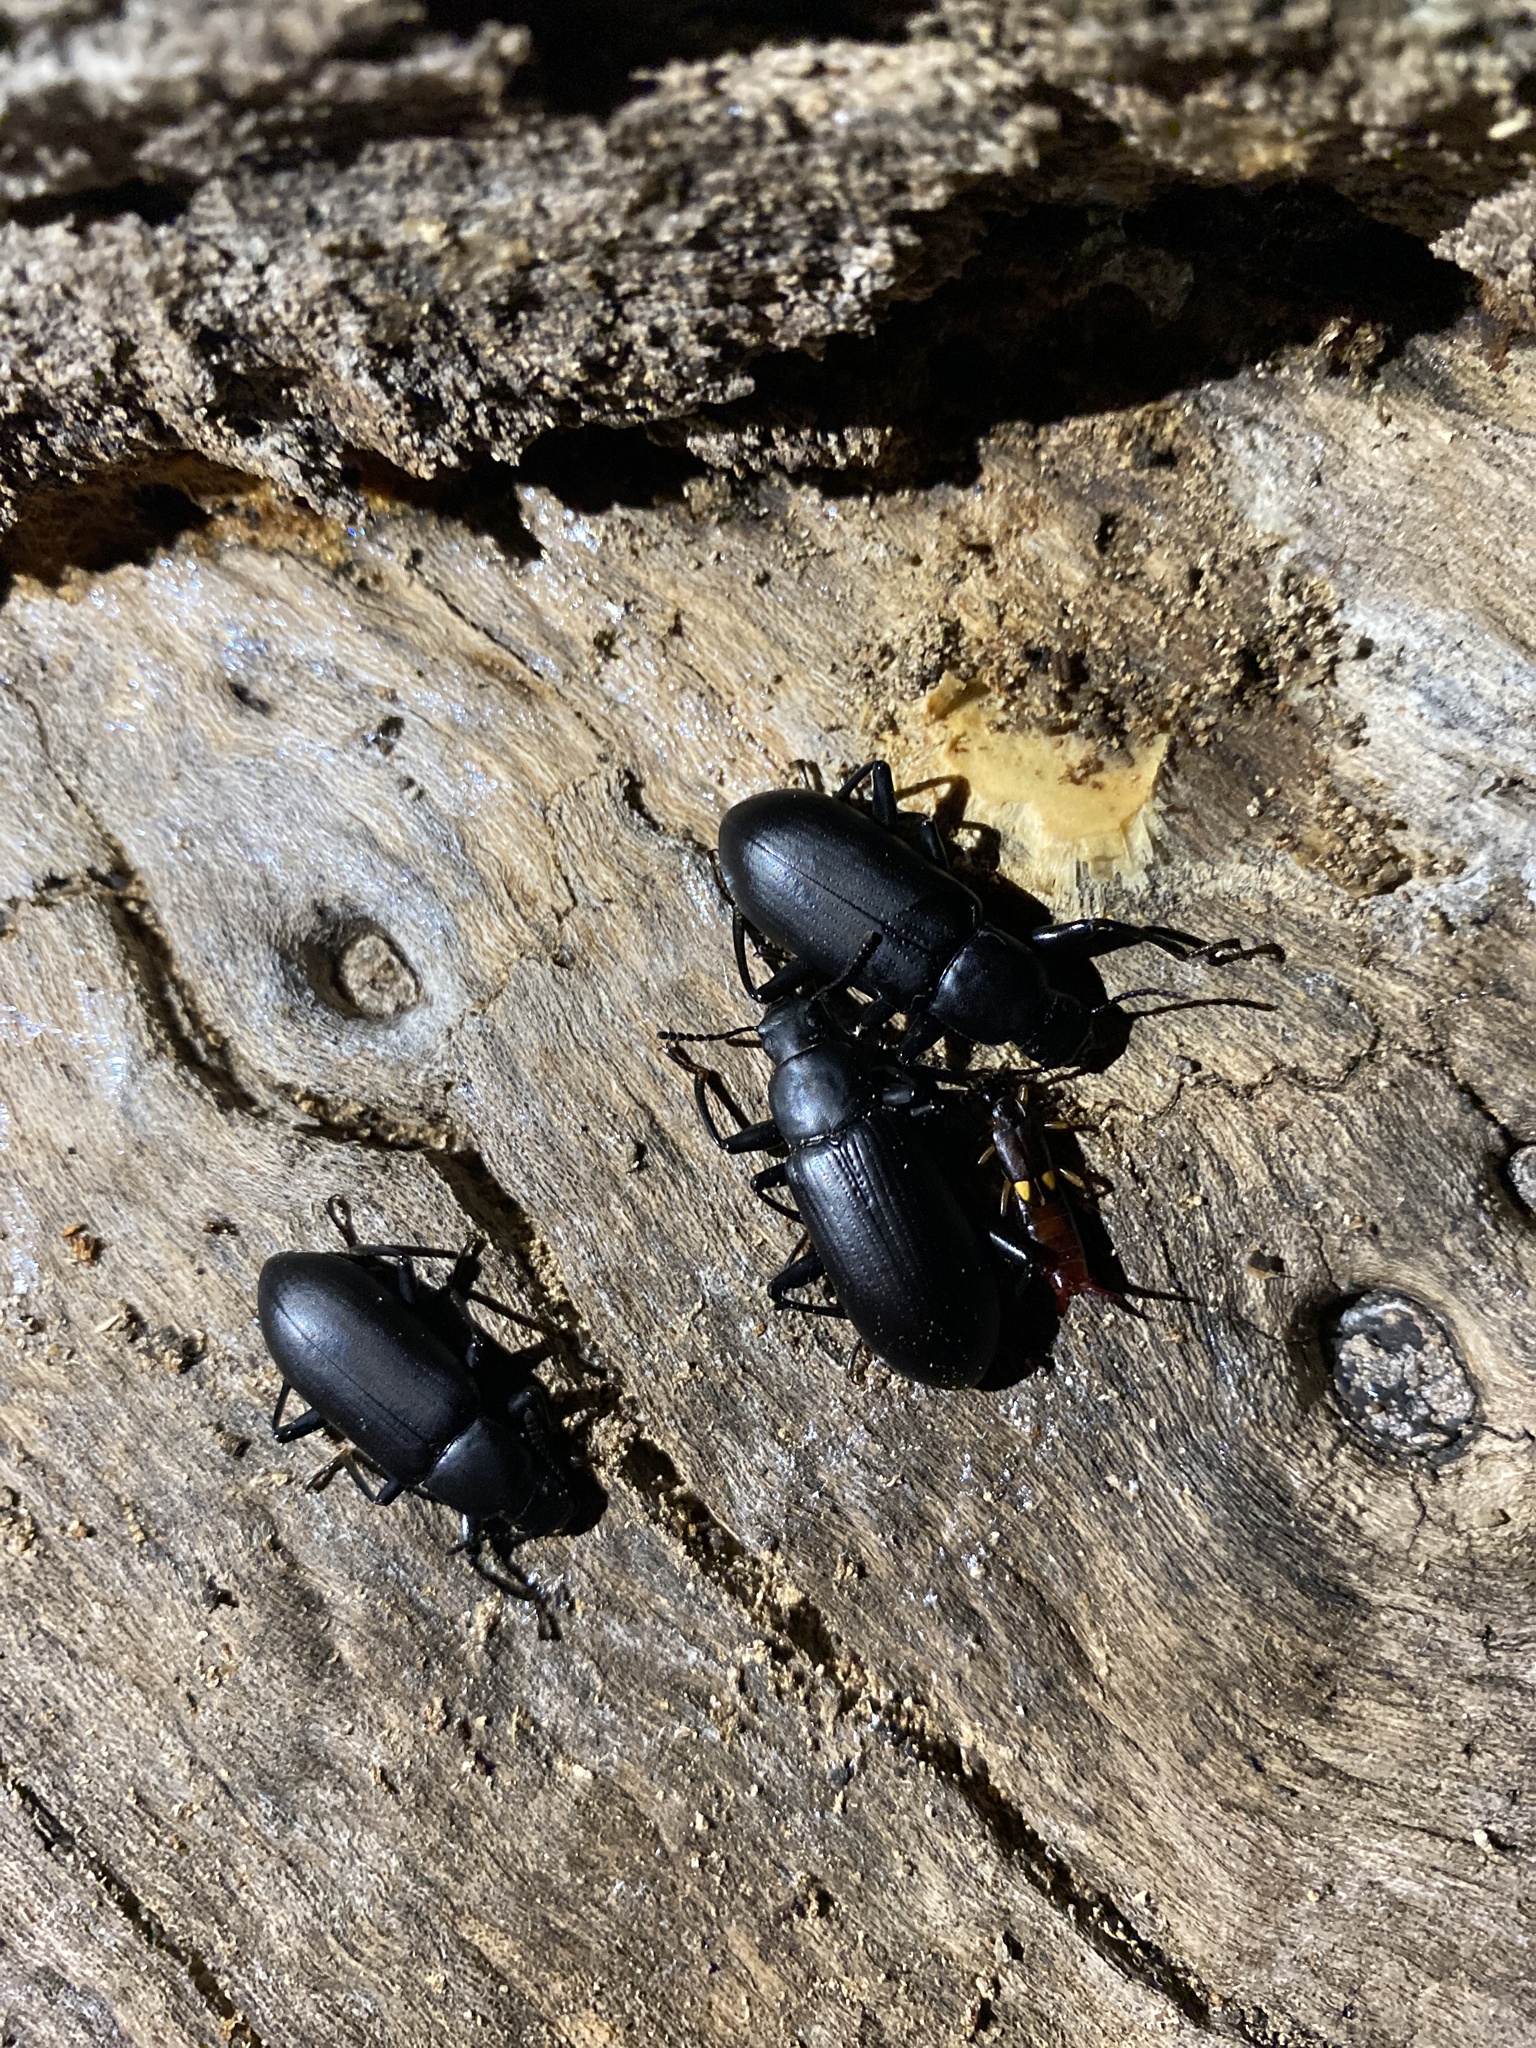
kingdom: Animalia
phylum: Arthropoda
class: Insecta
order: Coleoptera
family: Tenebrionidae
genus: Alobates
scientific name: Alobates
